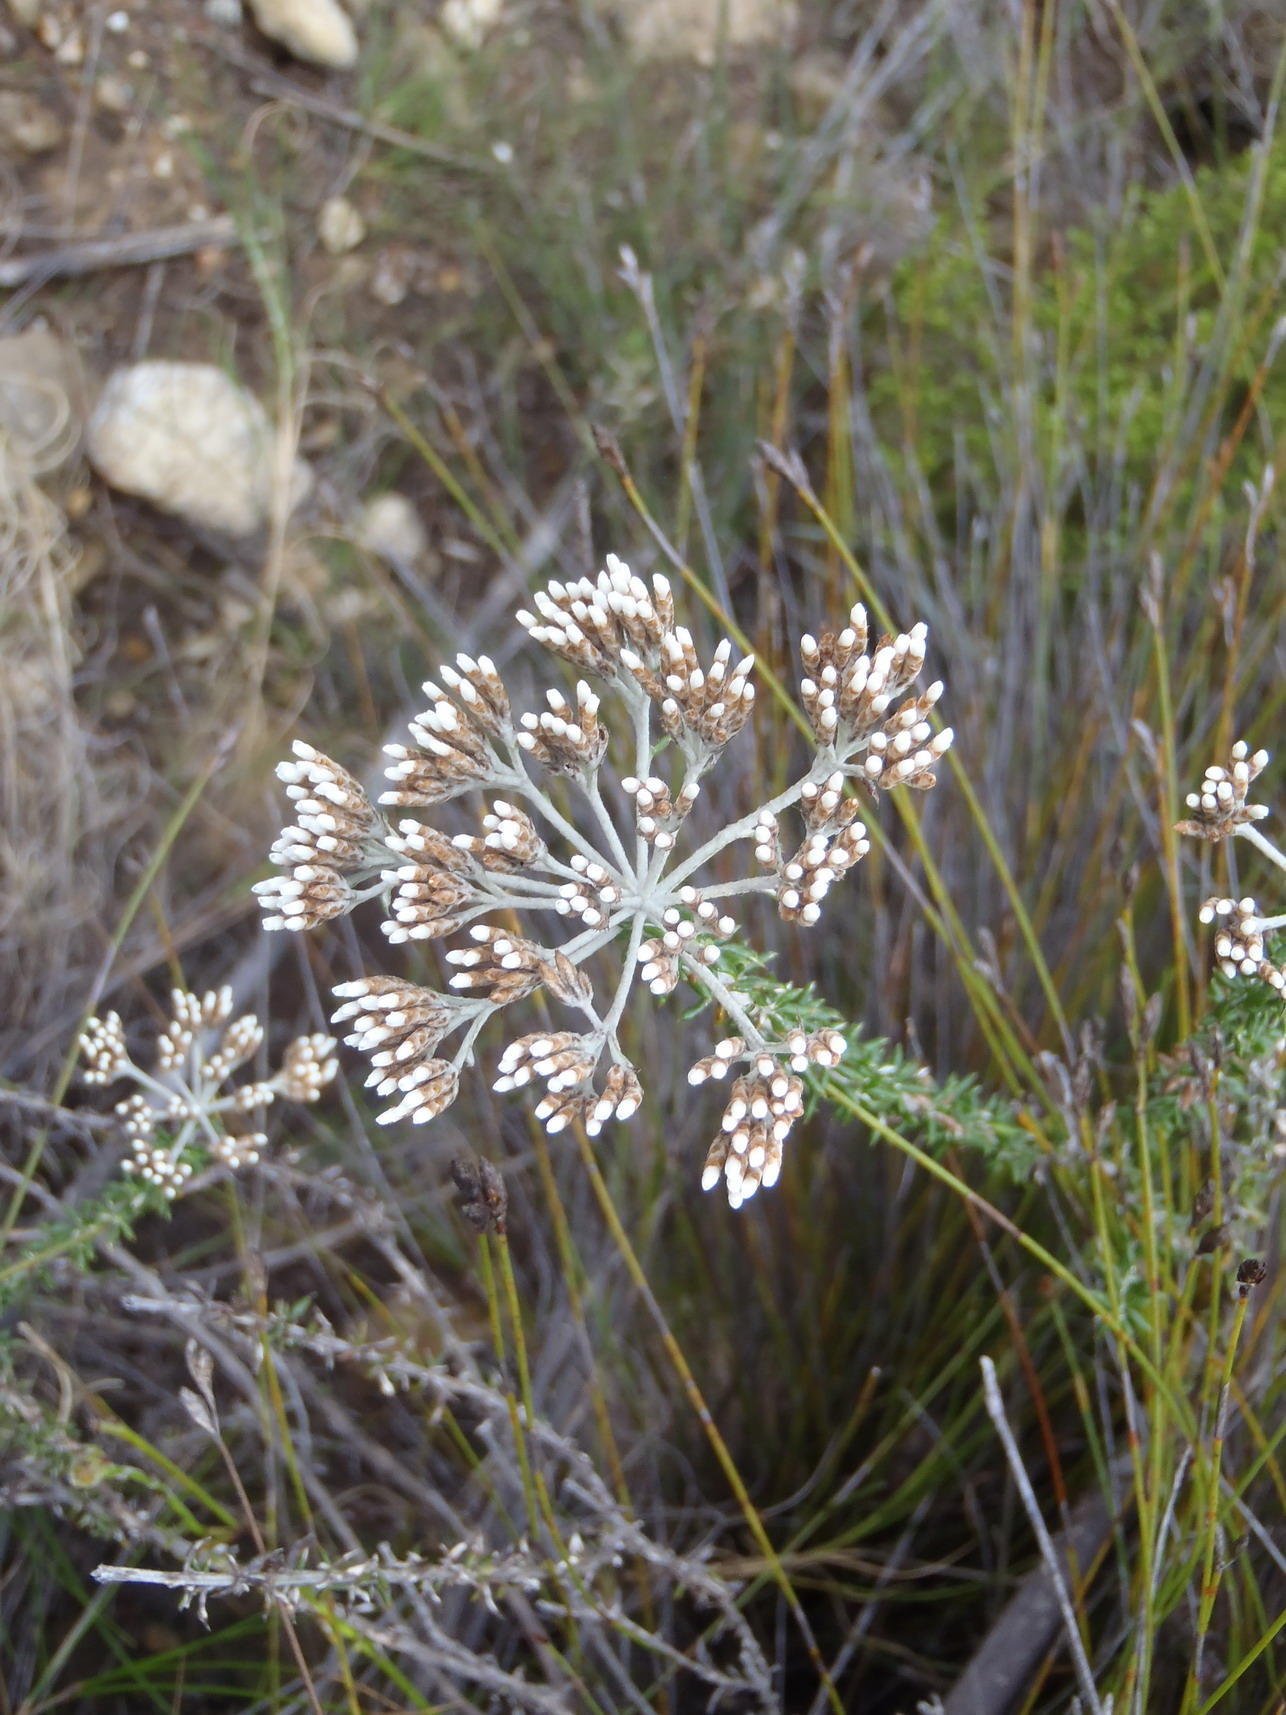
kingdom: Plantae
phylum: Tracheophyta
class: Magnoliopsida
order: Asterales
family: Asteraceae
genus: Metalasia
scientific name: Metalasia densa
